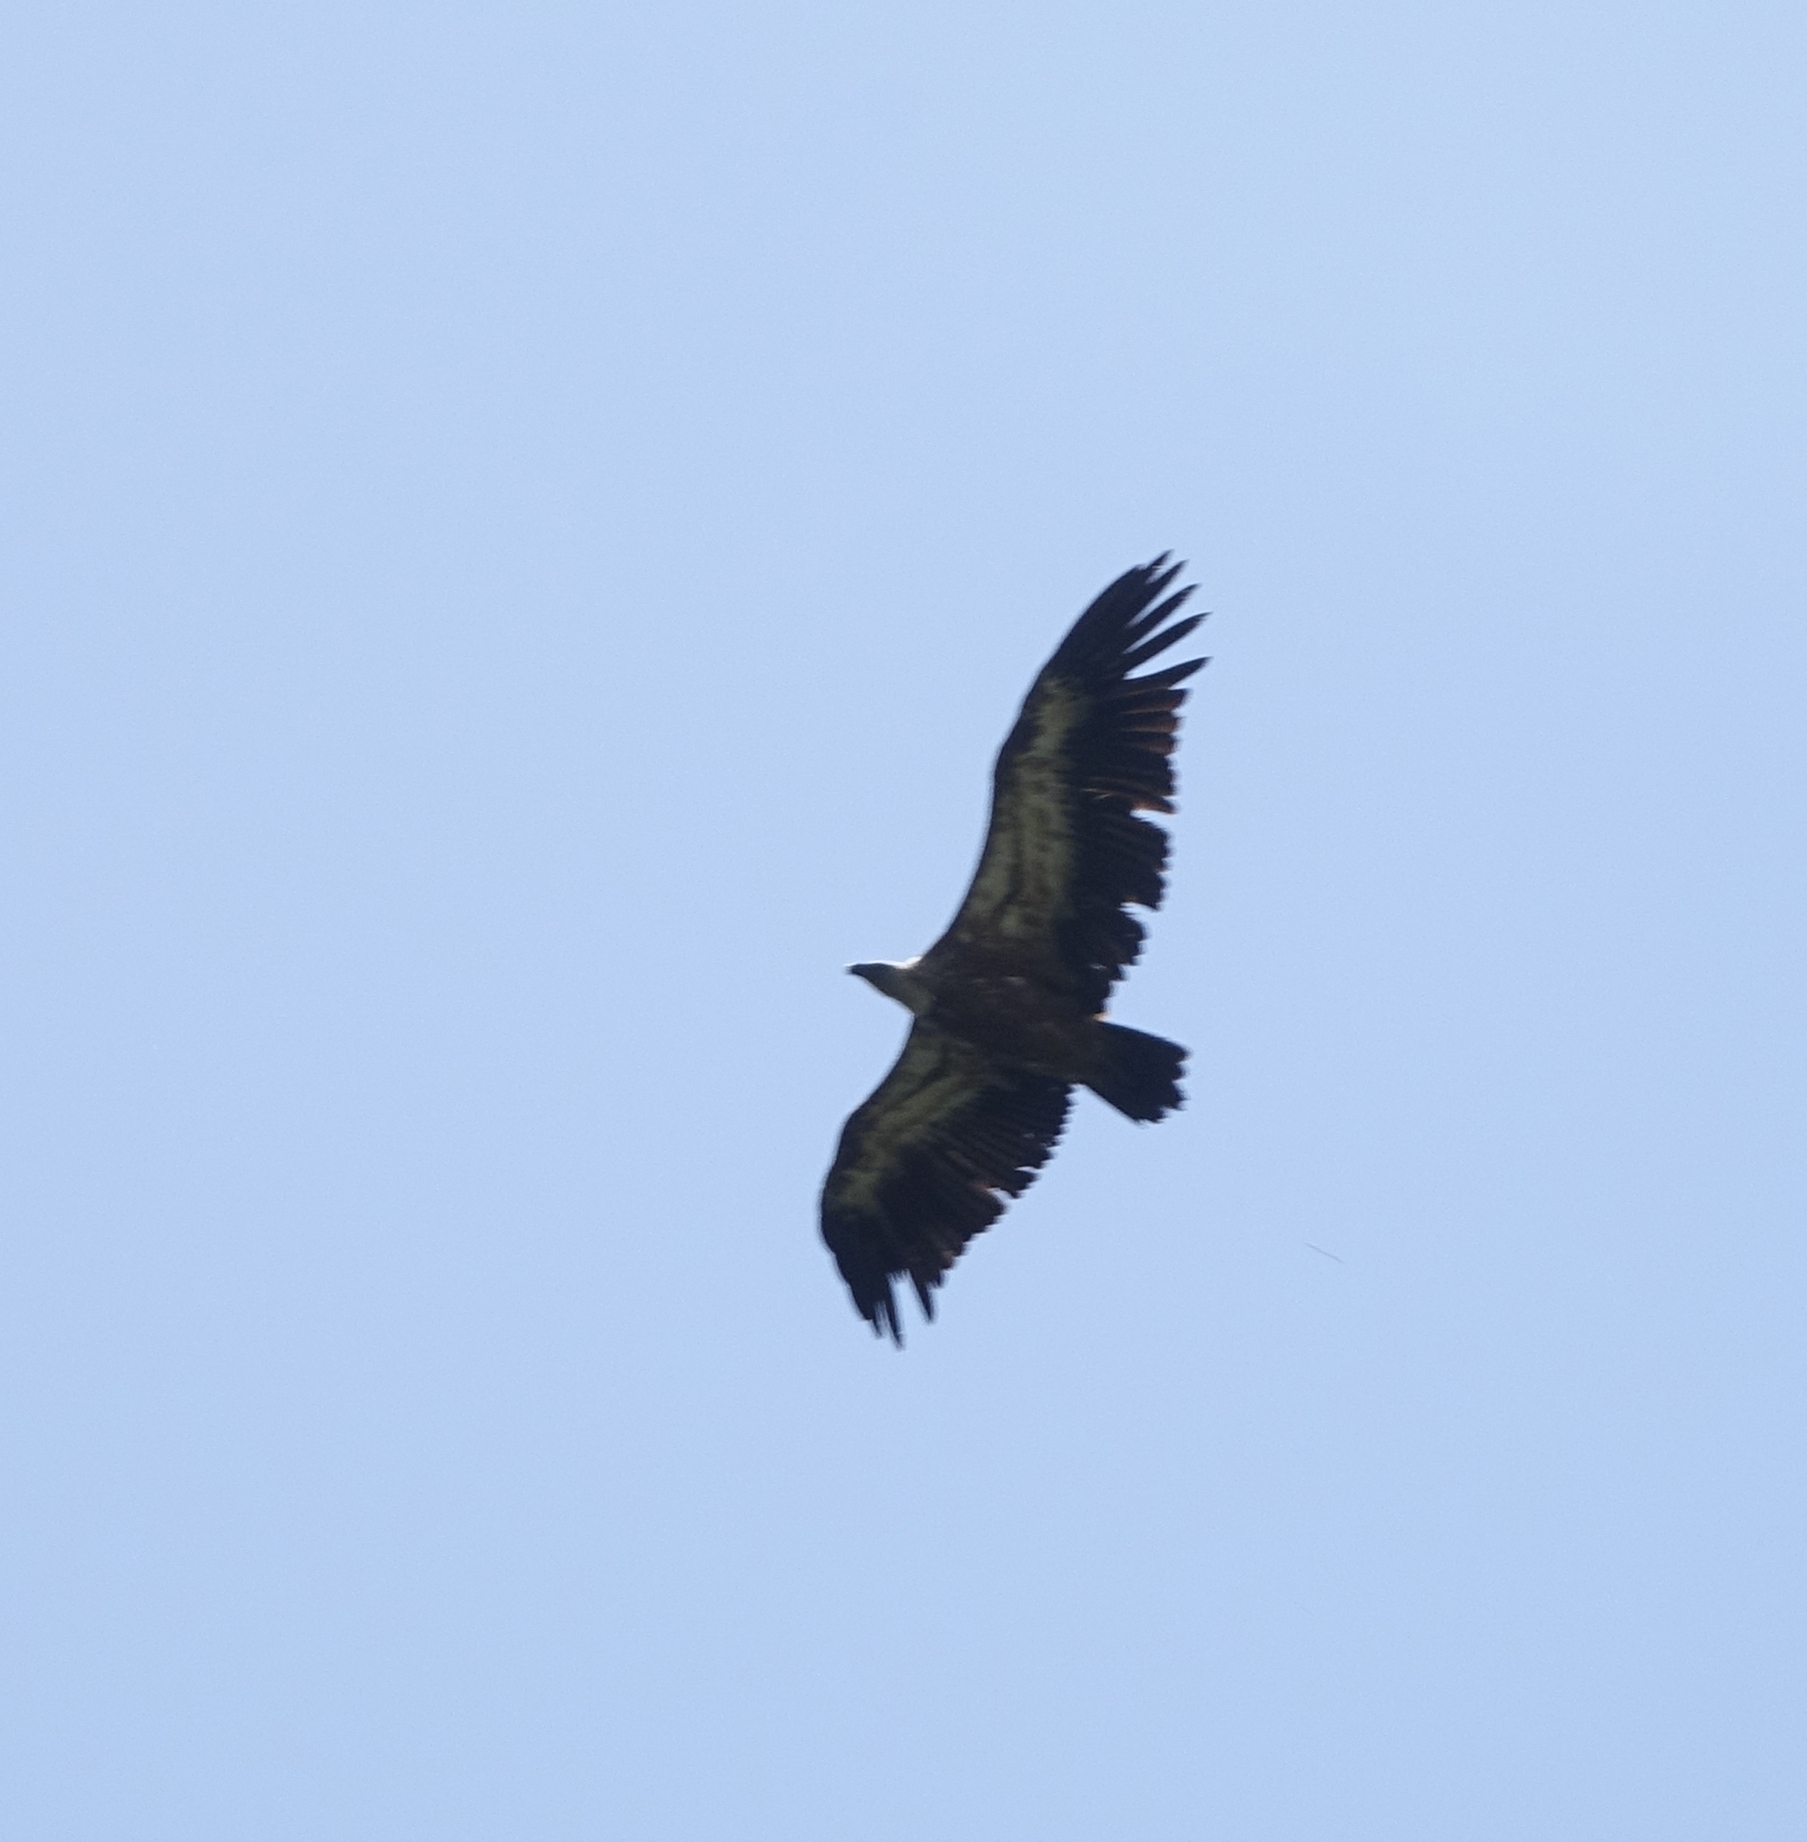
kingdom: Animalia
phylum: Chordata
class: Aves
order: Accipitriformes
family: Accipitridae
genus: Gyps
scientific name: Gyps fulvus
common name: Griffon vulture
